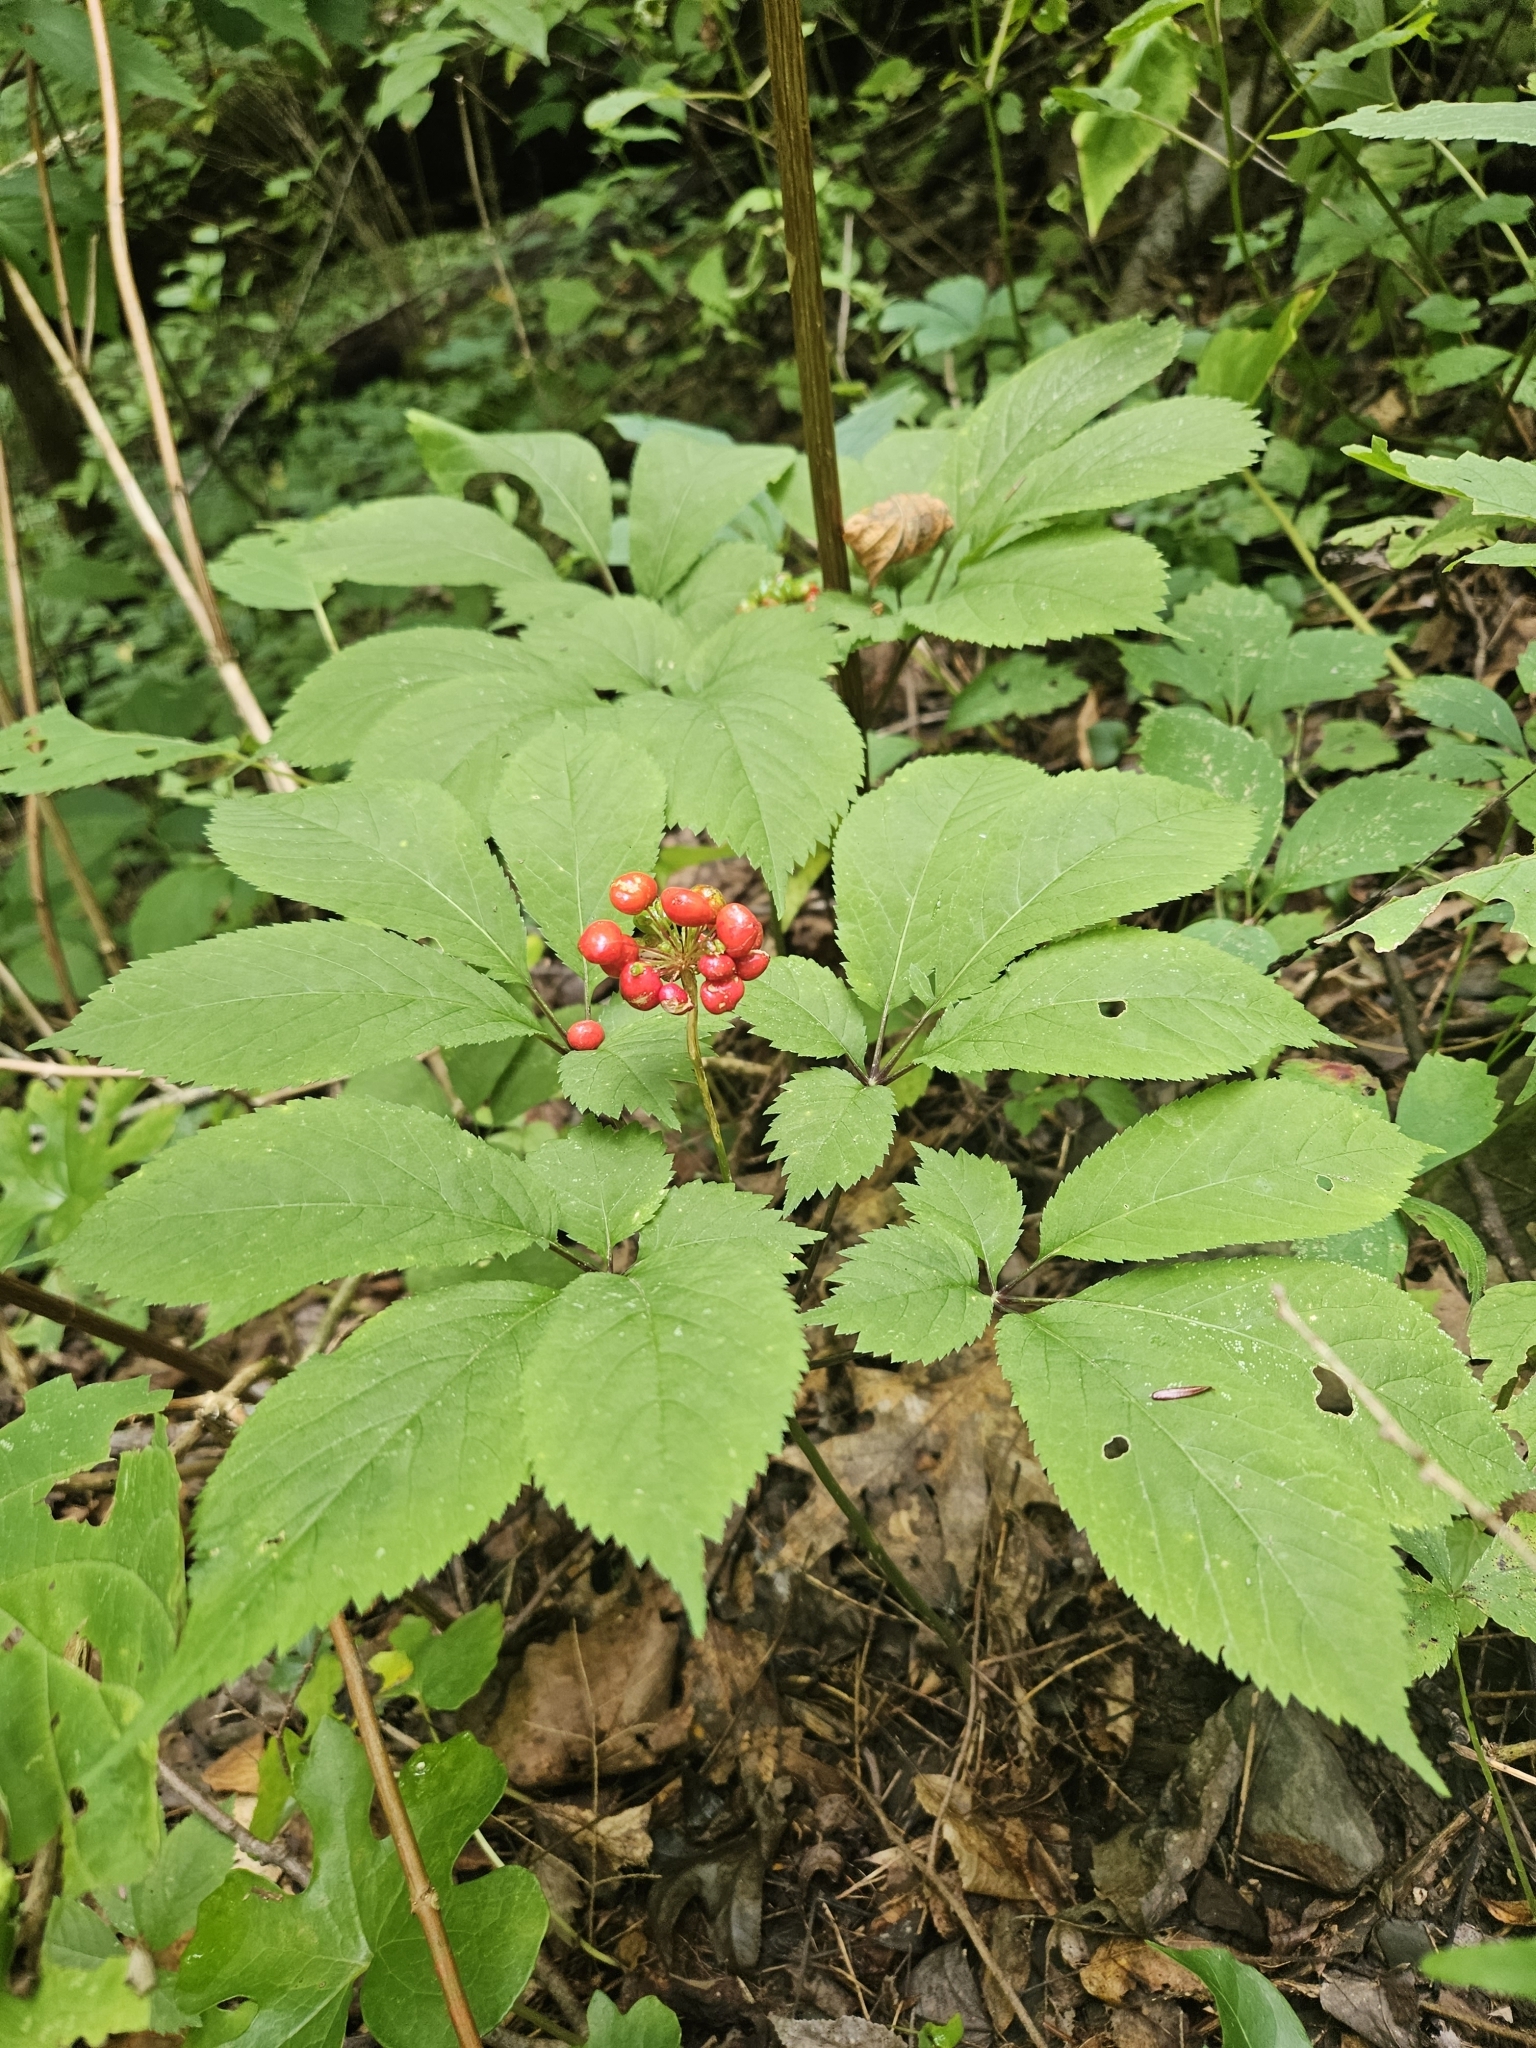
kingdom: Plantae
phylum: Tracheophyta
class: Magnoliopsida
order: Apiales
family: Araliaceae
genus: Panax
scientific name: Panax quinquefolius
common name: American ginseng
